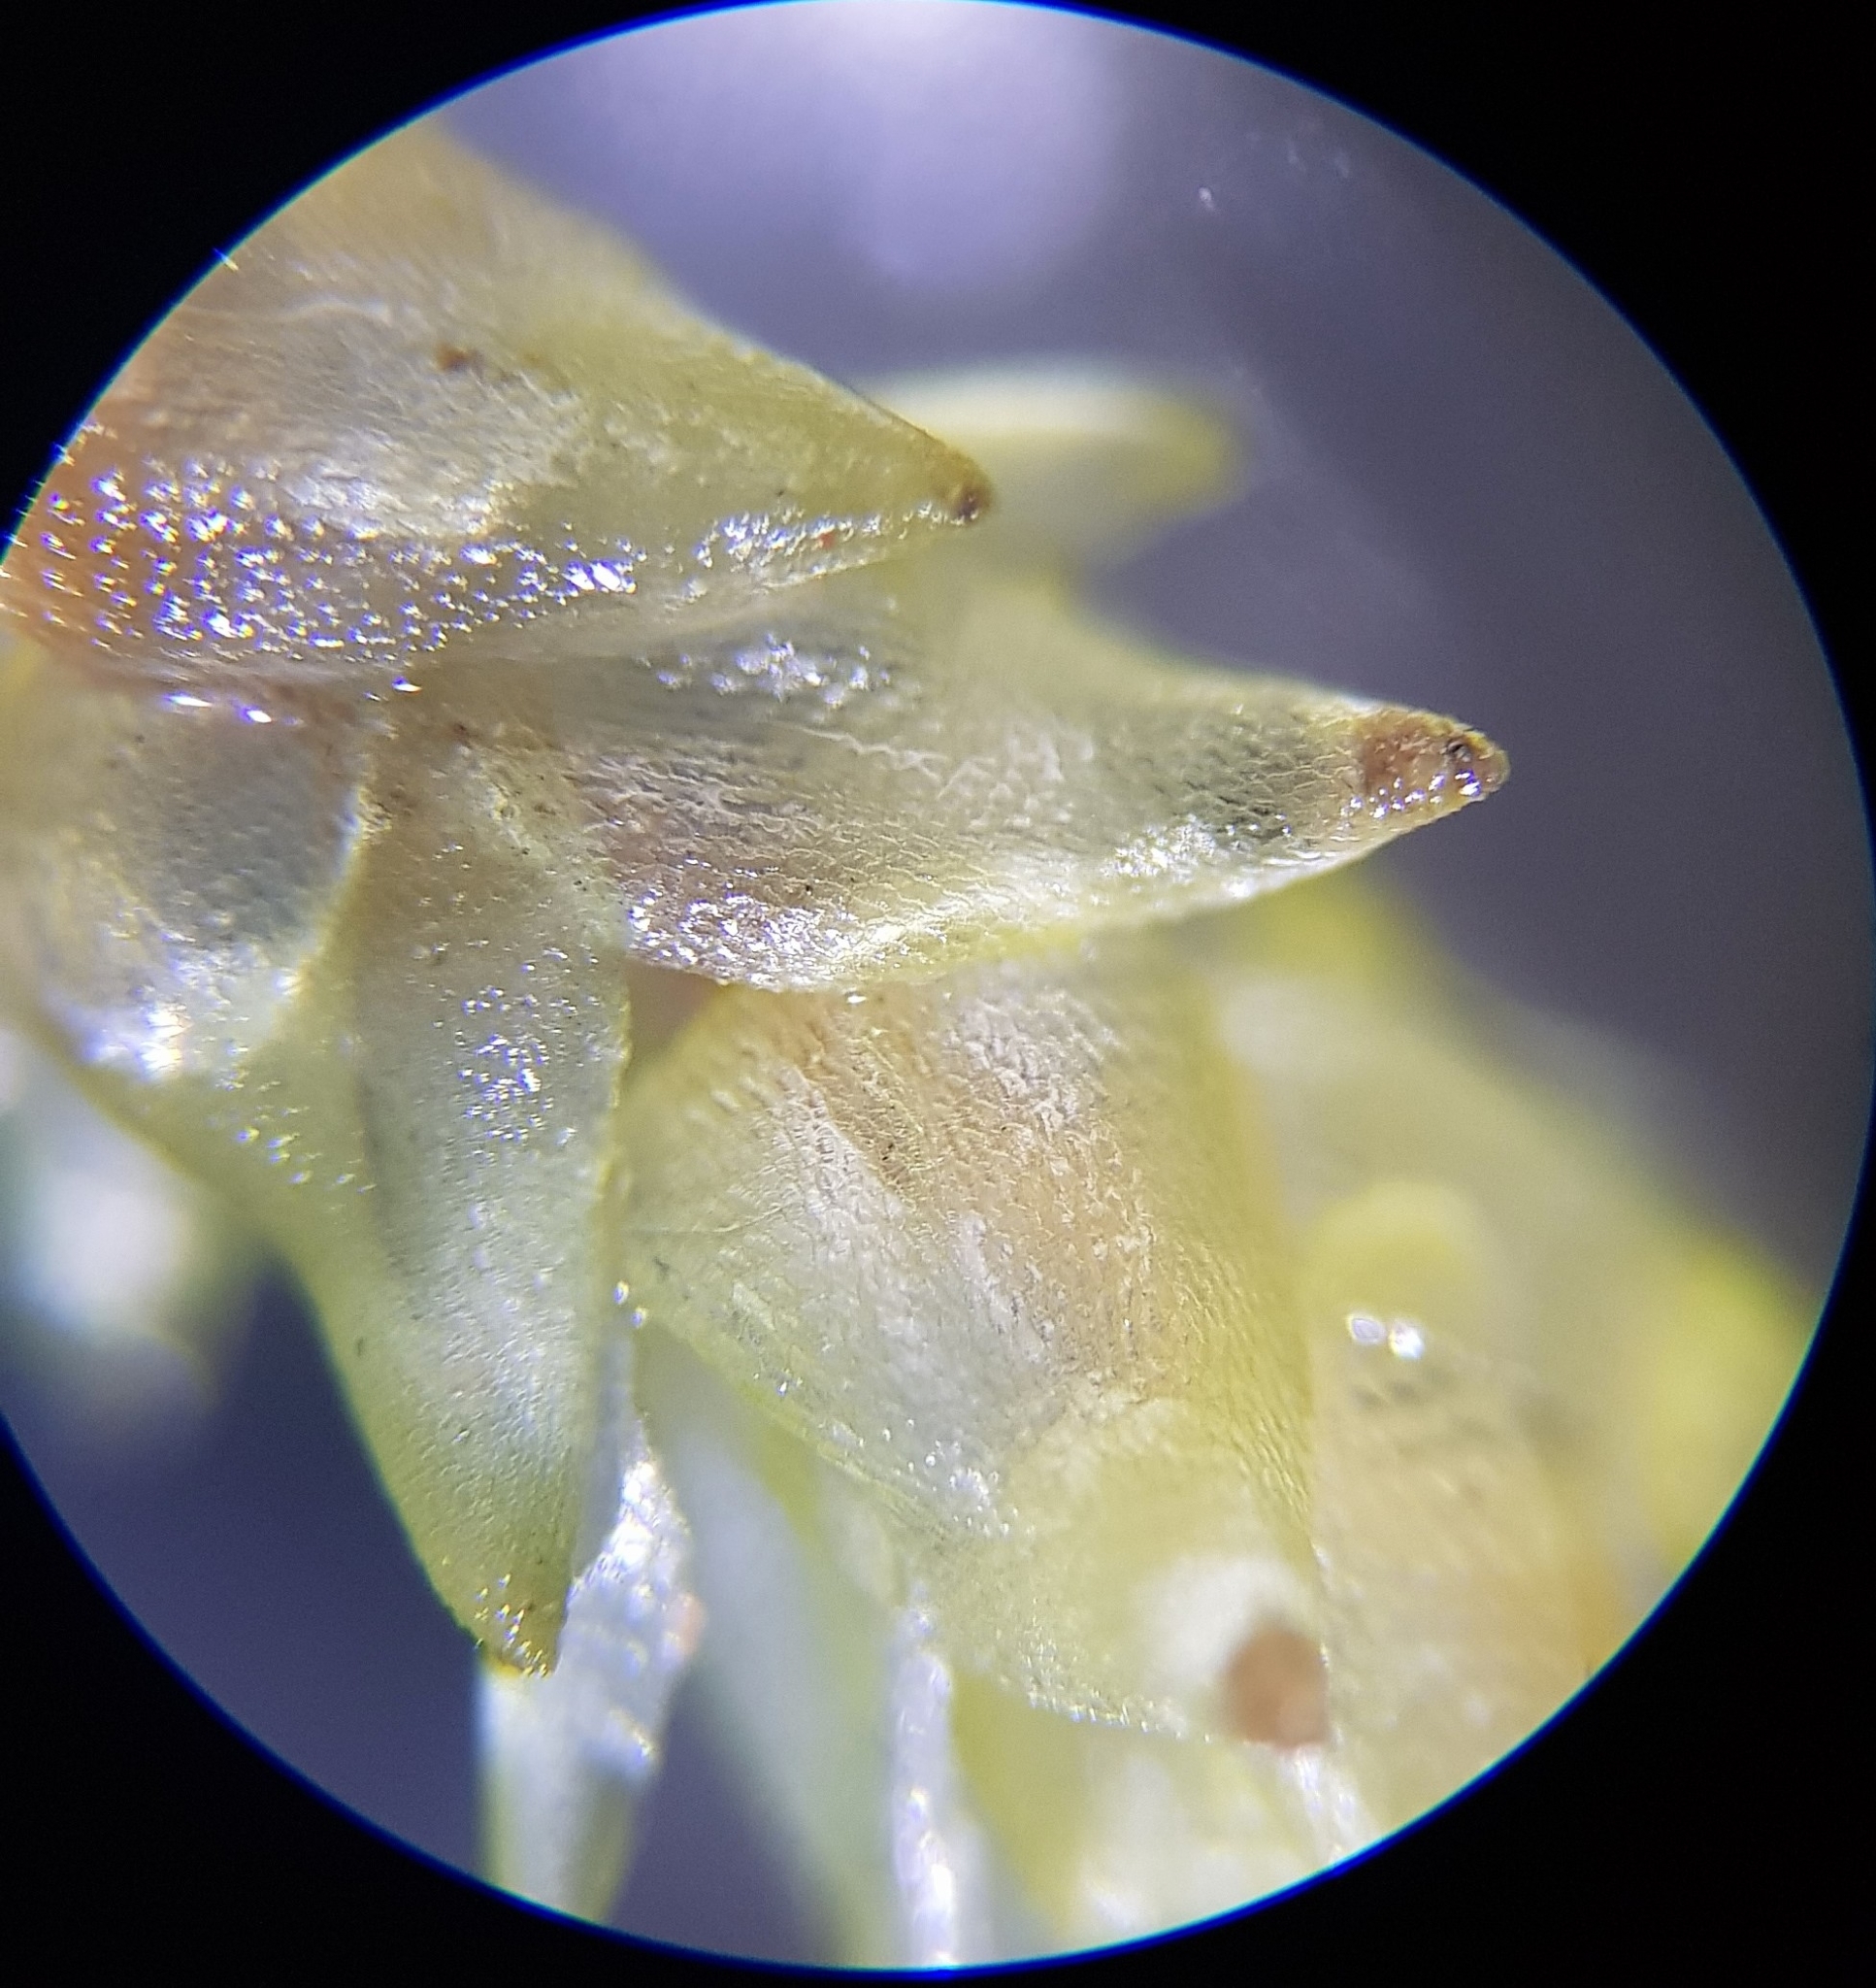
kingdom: Plantae
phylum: Bryophyta
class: Sphagnopsida
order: Sphagnales
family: Sphagnaceae
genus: Sphagnum
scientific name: Sphagnum palustre
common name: Blunt-leaved bog-moss
